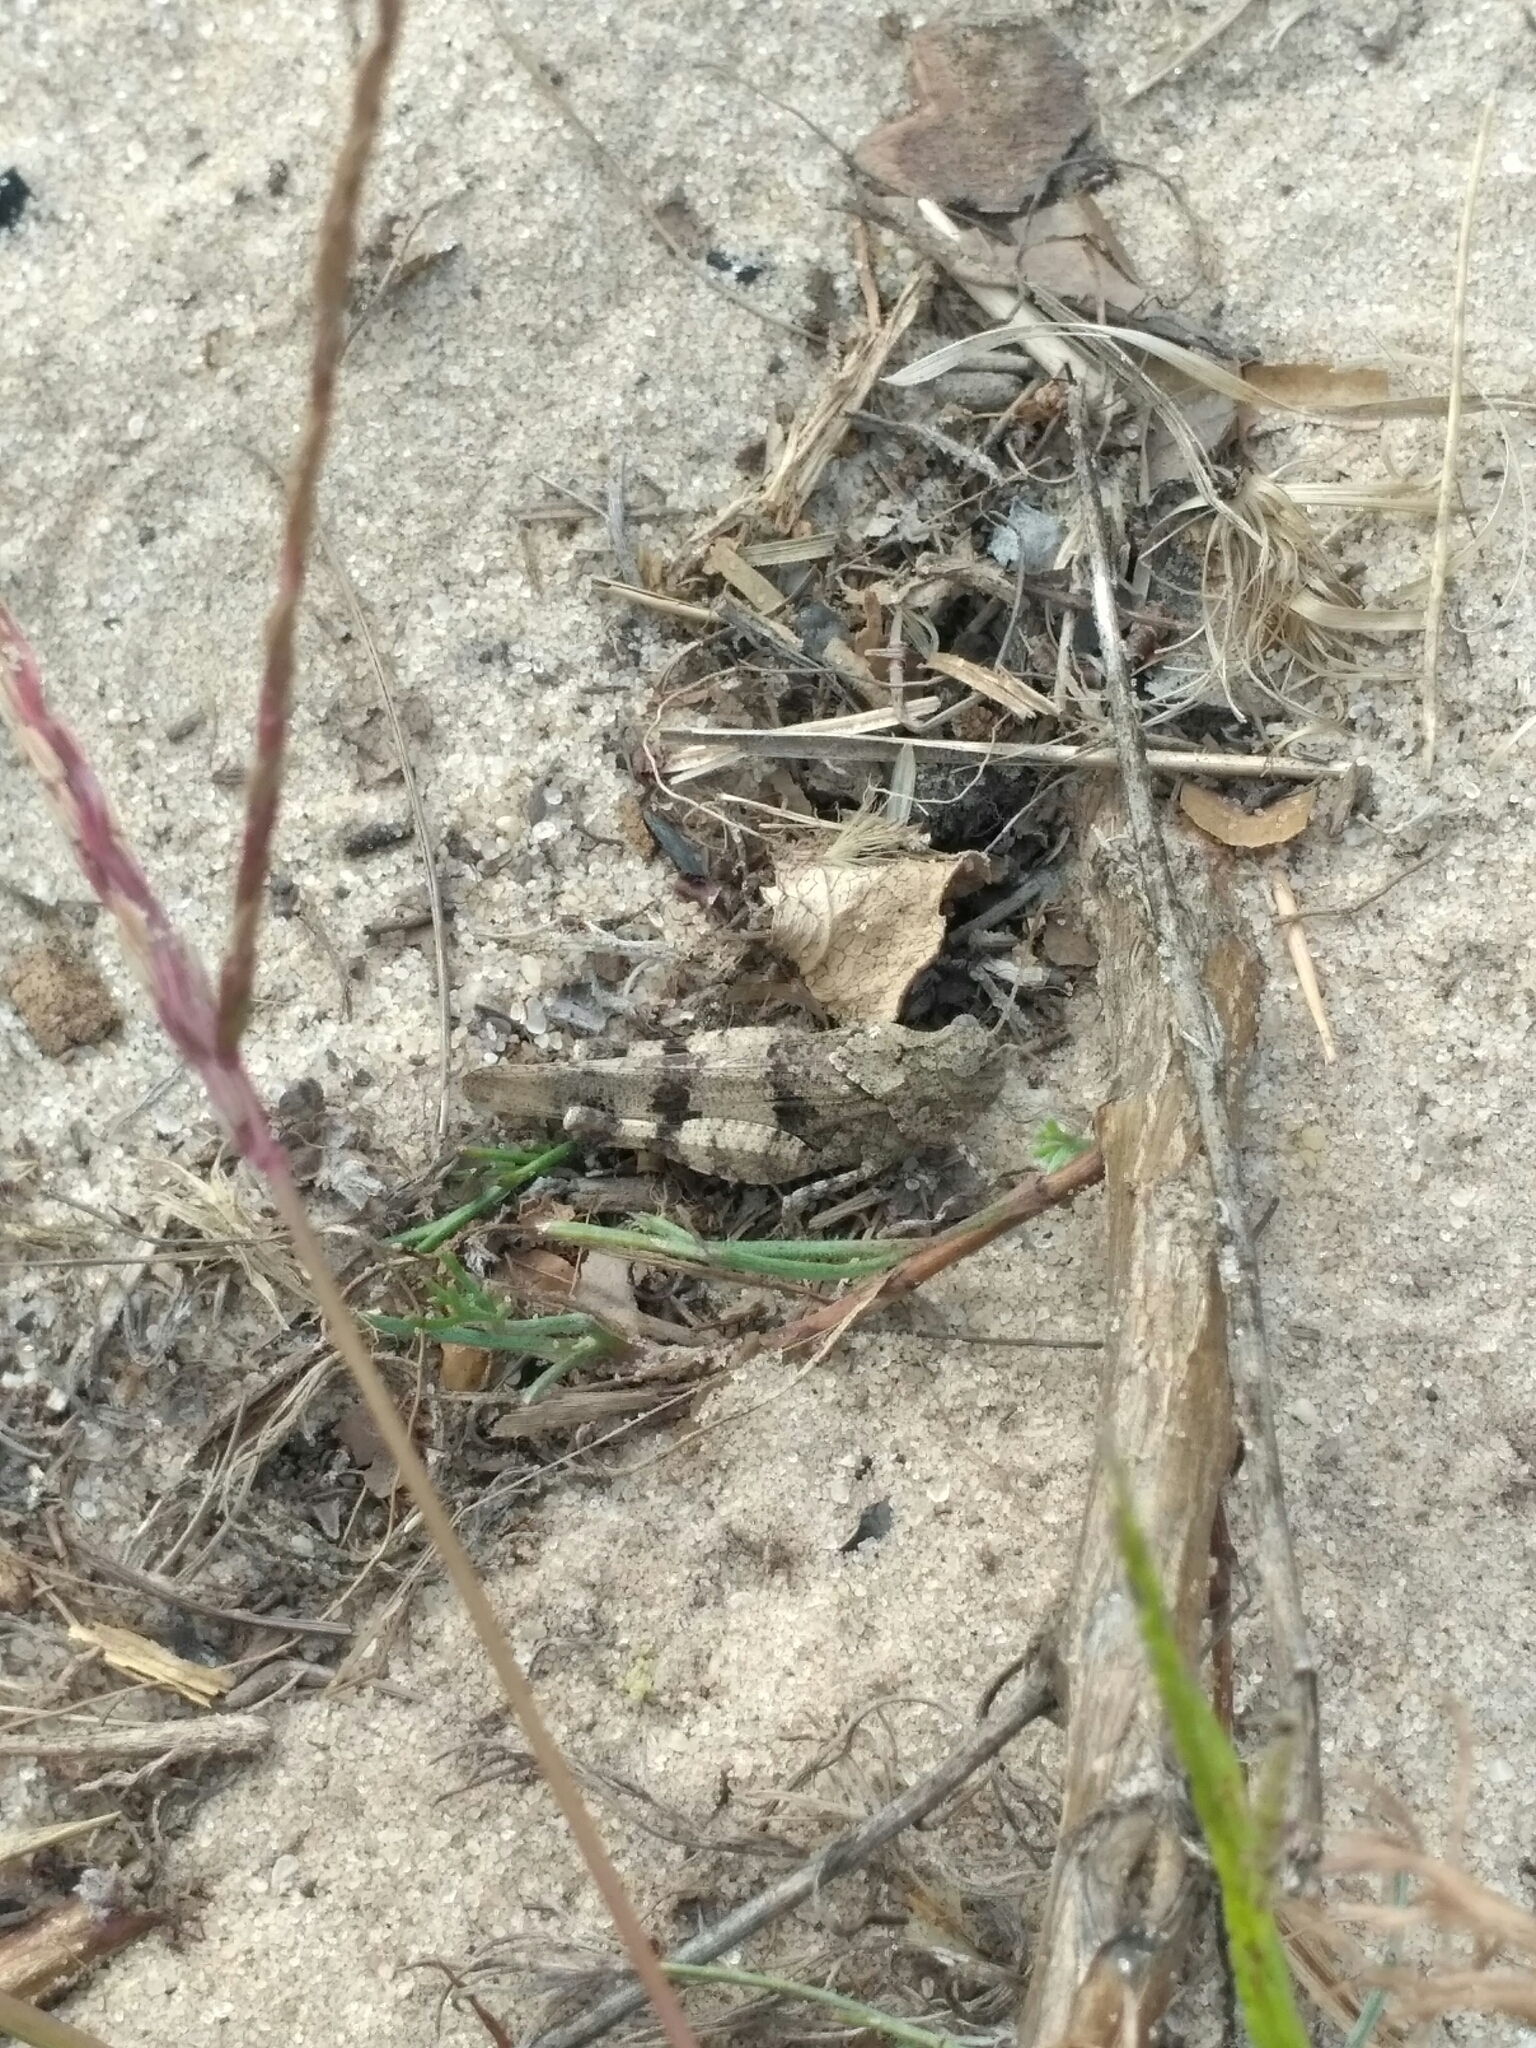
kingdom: Animalia
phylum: Arthropoda
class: Insecta
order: Orthoptera
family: Acrididae
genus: Oedipoda
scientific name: Oedipoda caerulescens
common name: Blue-winged grasshopper
